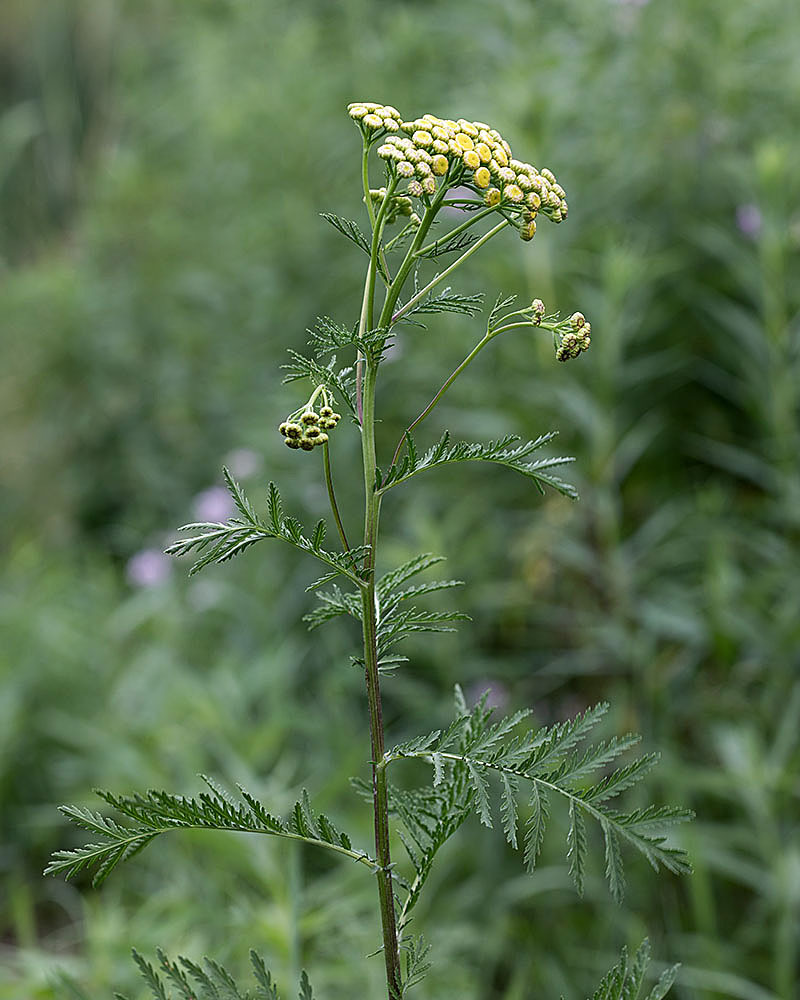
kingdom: Plantae
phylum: Tracheophyta
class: Magnoliopsida
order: Asterales
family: Asteraceae
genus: Tanacetum
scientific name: Tanacetum vulgare
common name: Common tansy
